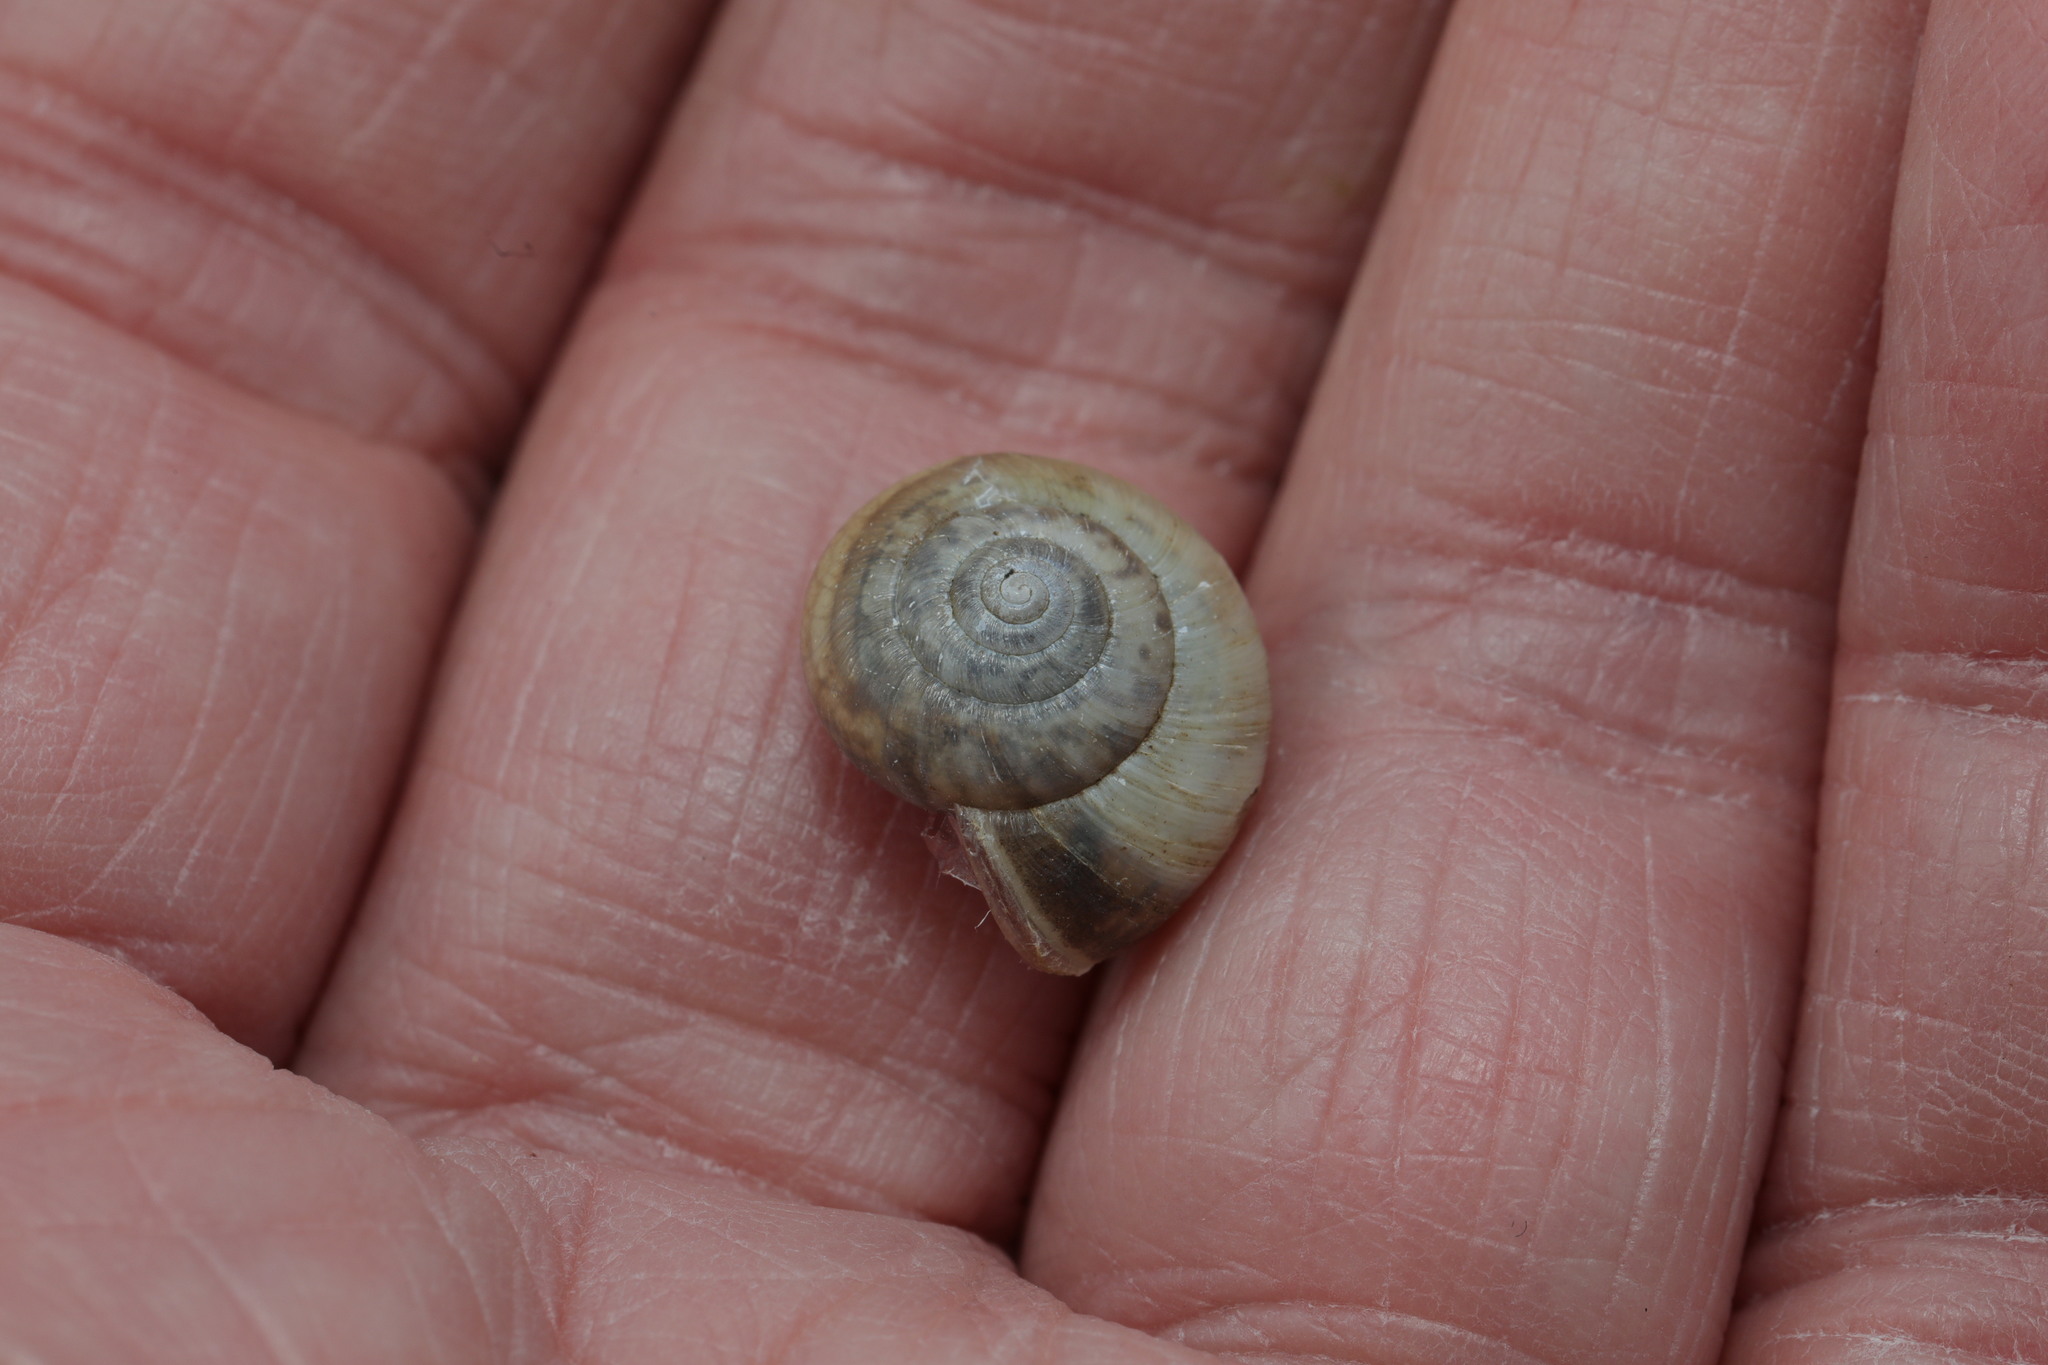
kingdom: Animalia
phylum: Mollusca
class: Gastropoda
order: Stylommatophora
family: Hygromiidae
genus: Monacha
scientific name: Monacha cantiana
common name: Kentish snail
